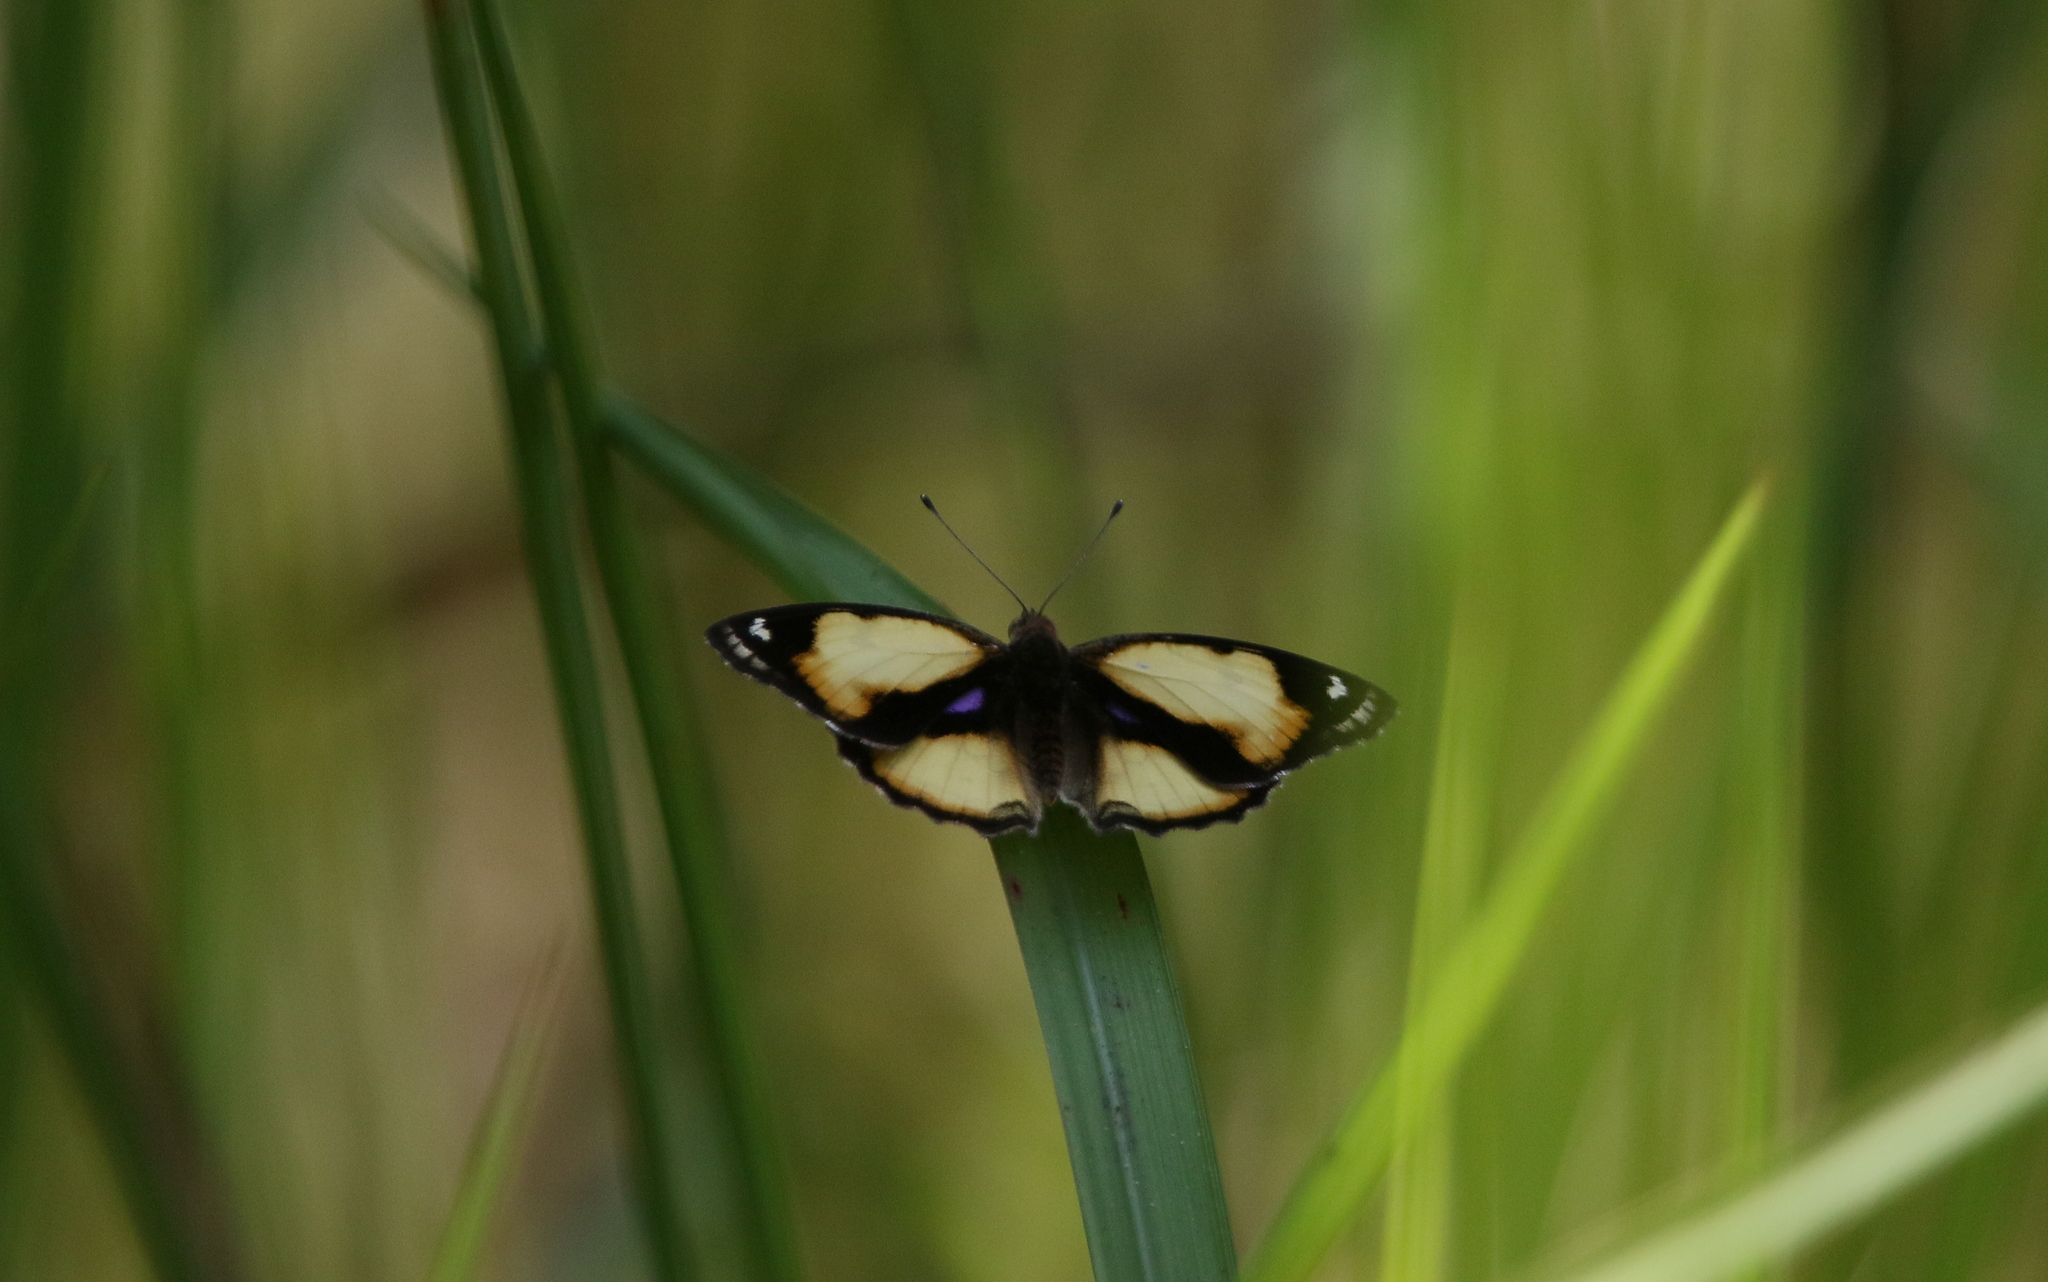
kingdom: Animalia
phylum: Arthropoda
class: Insecta
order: Lepidoptera
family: Nymphalidae
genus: Junonia
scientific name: Junonia hierta
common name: Yellow pansy
